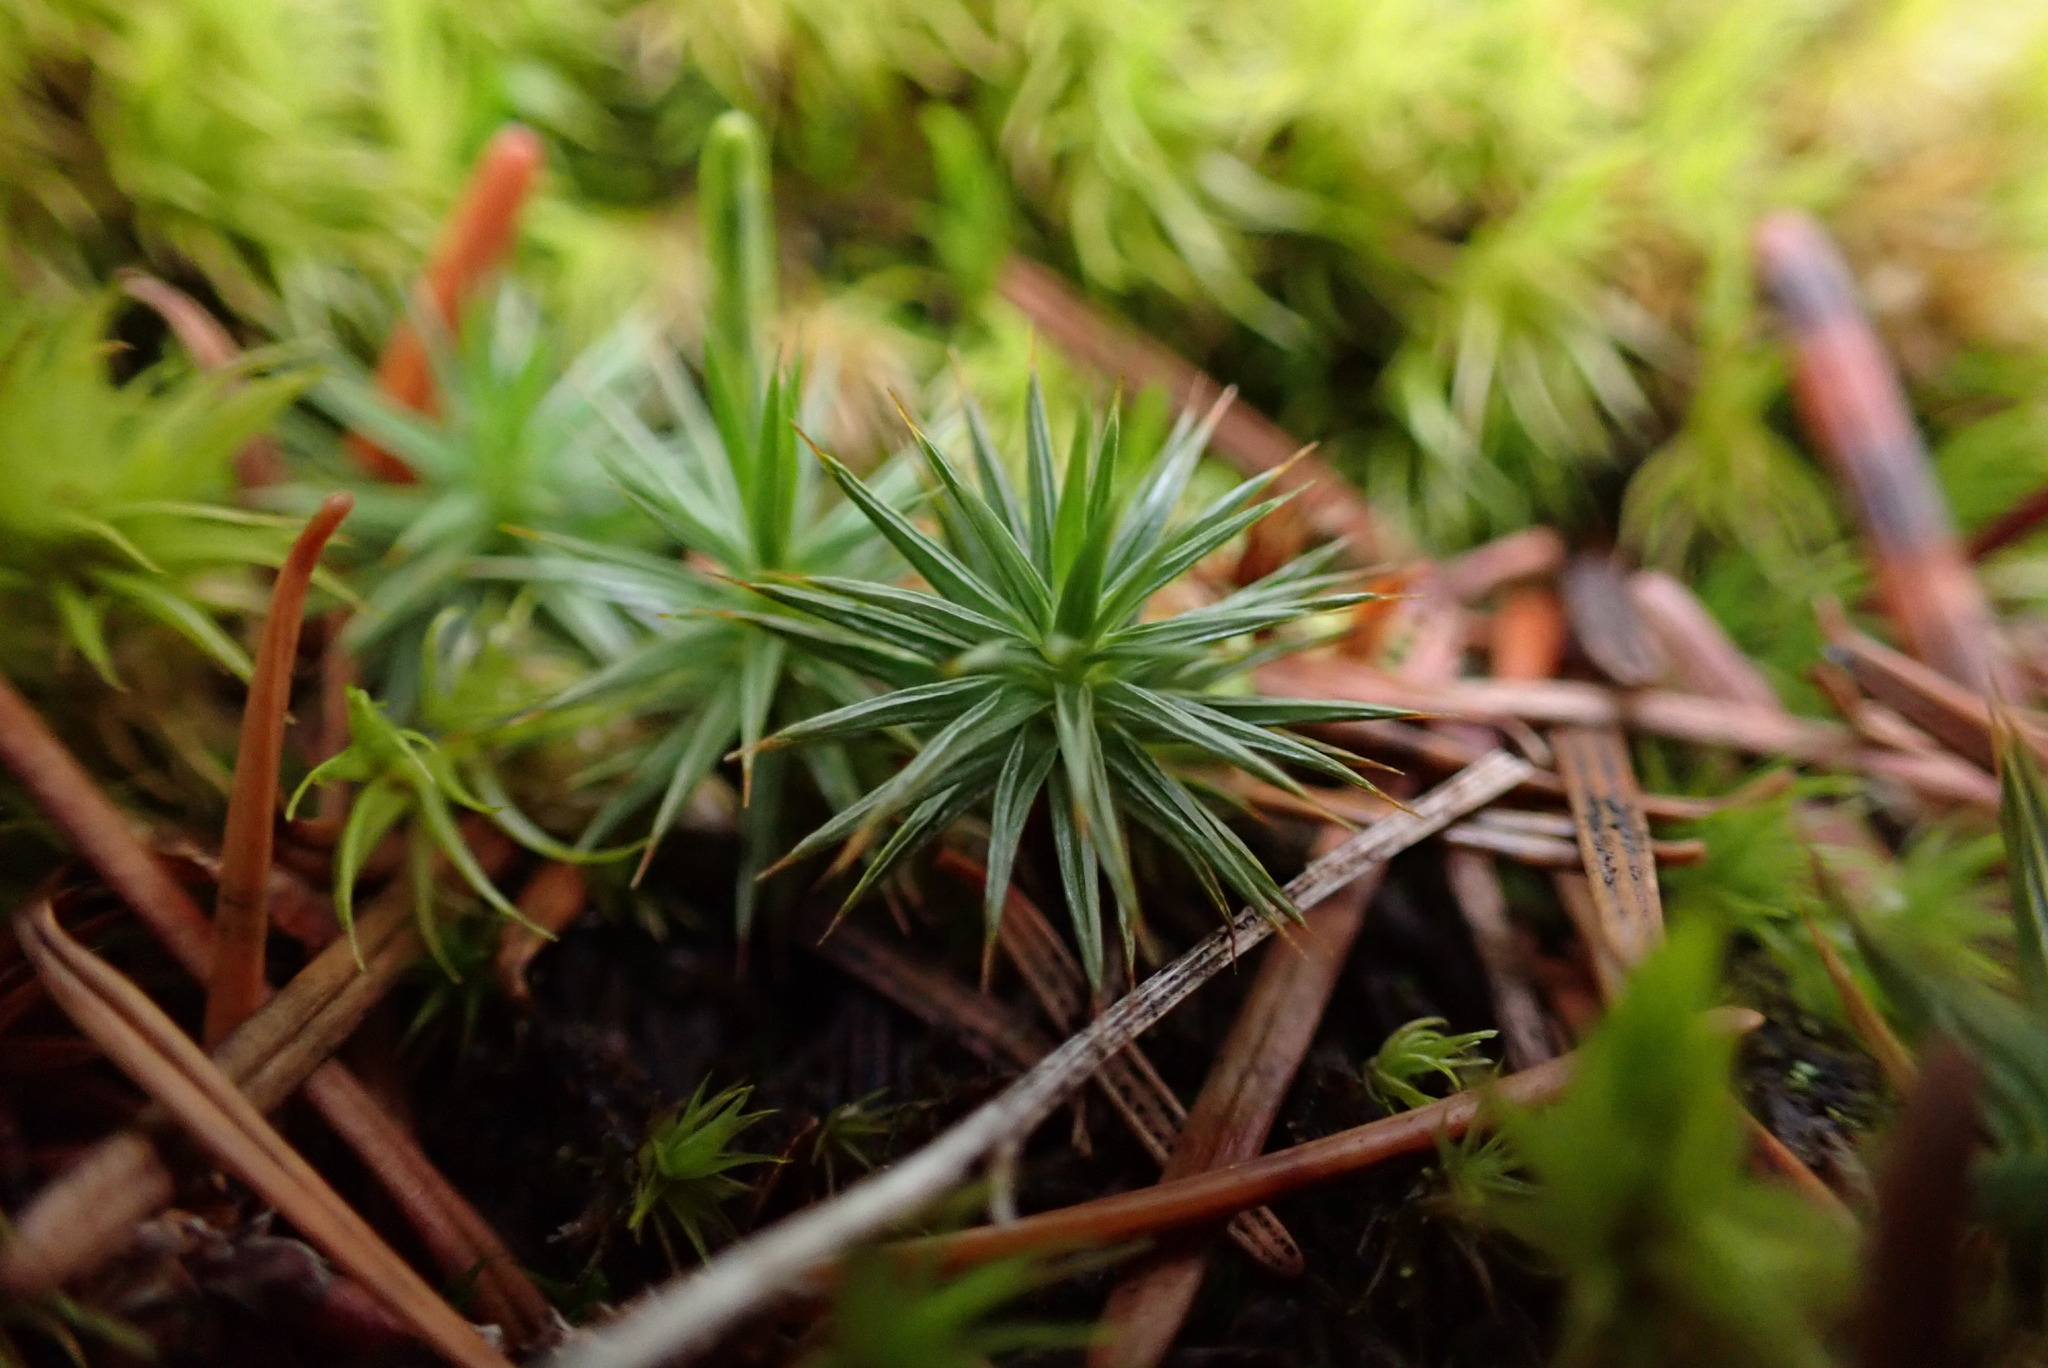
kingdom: Plantae
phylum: Bryophyta
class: Polytrichopsida
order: Polytrichales
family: Polytrichaceae
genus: Polytrichum
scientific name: Polytrichum juniperinum
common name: Juniper haircap moss
